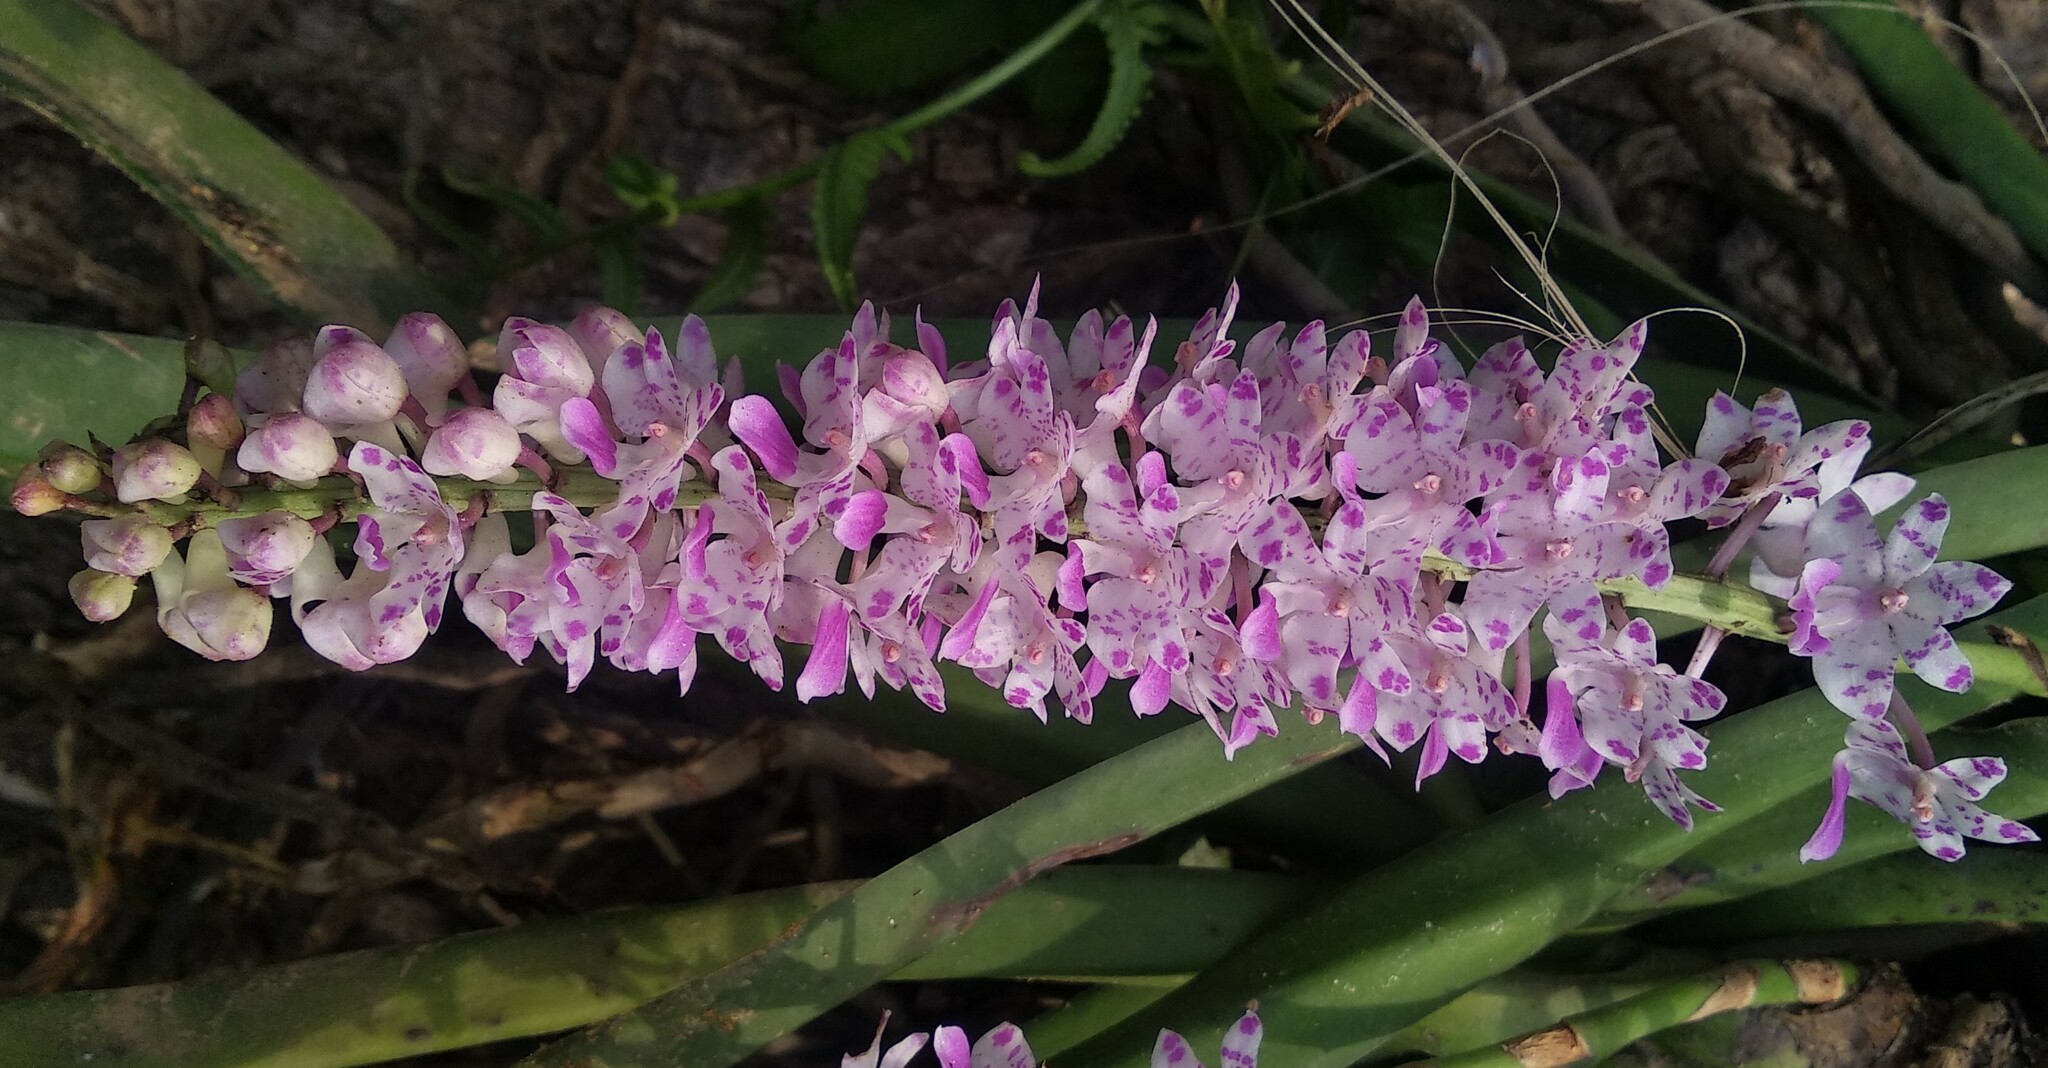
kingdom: Plantae
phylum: Tracheophyta
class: Liliopsida
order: Asparagales
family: Orchidaceae
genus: Rhynchostylis
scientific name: Rhynchostylis retusa
